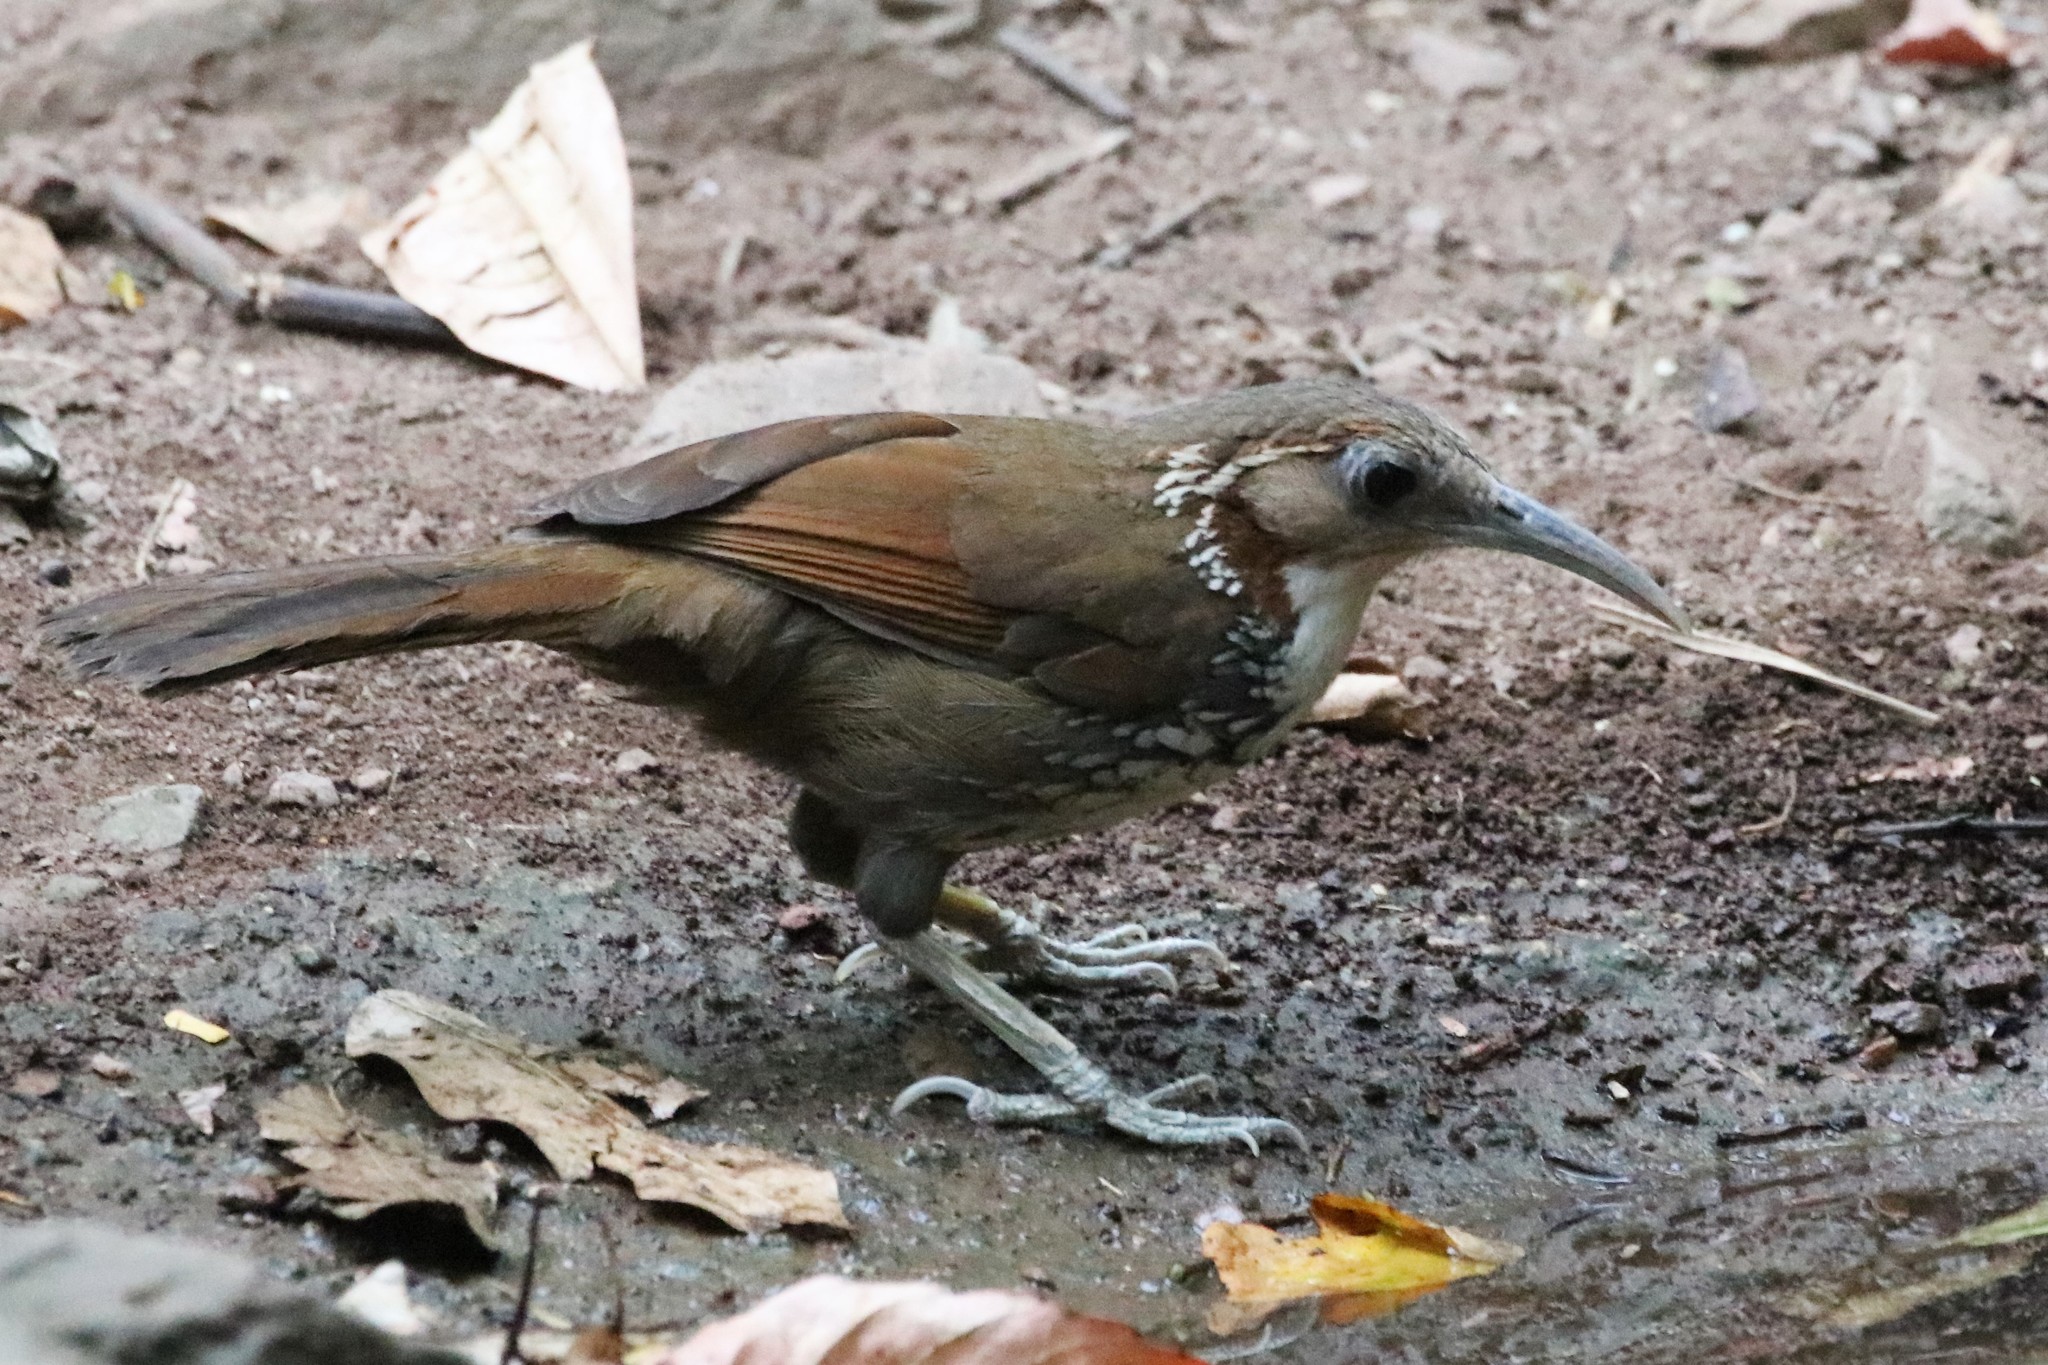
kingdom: Animalia
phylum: Chordata
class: Aves
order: Passeriformes
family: Timaliidae
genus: Pomatorhinus
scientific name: Pomatorhinus hypoleucos
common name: Large scimitar babbler
